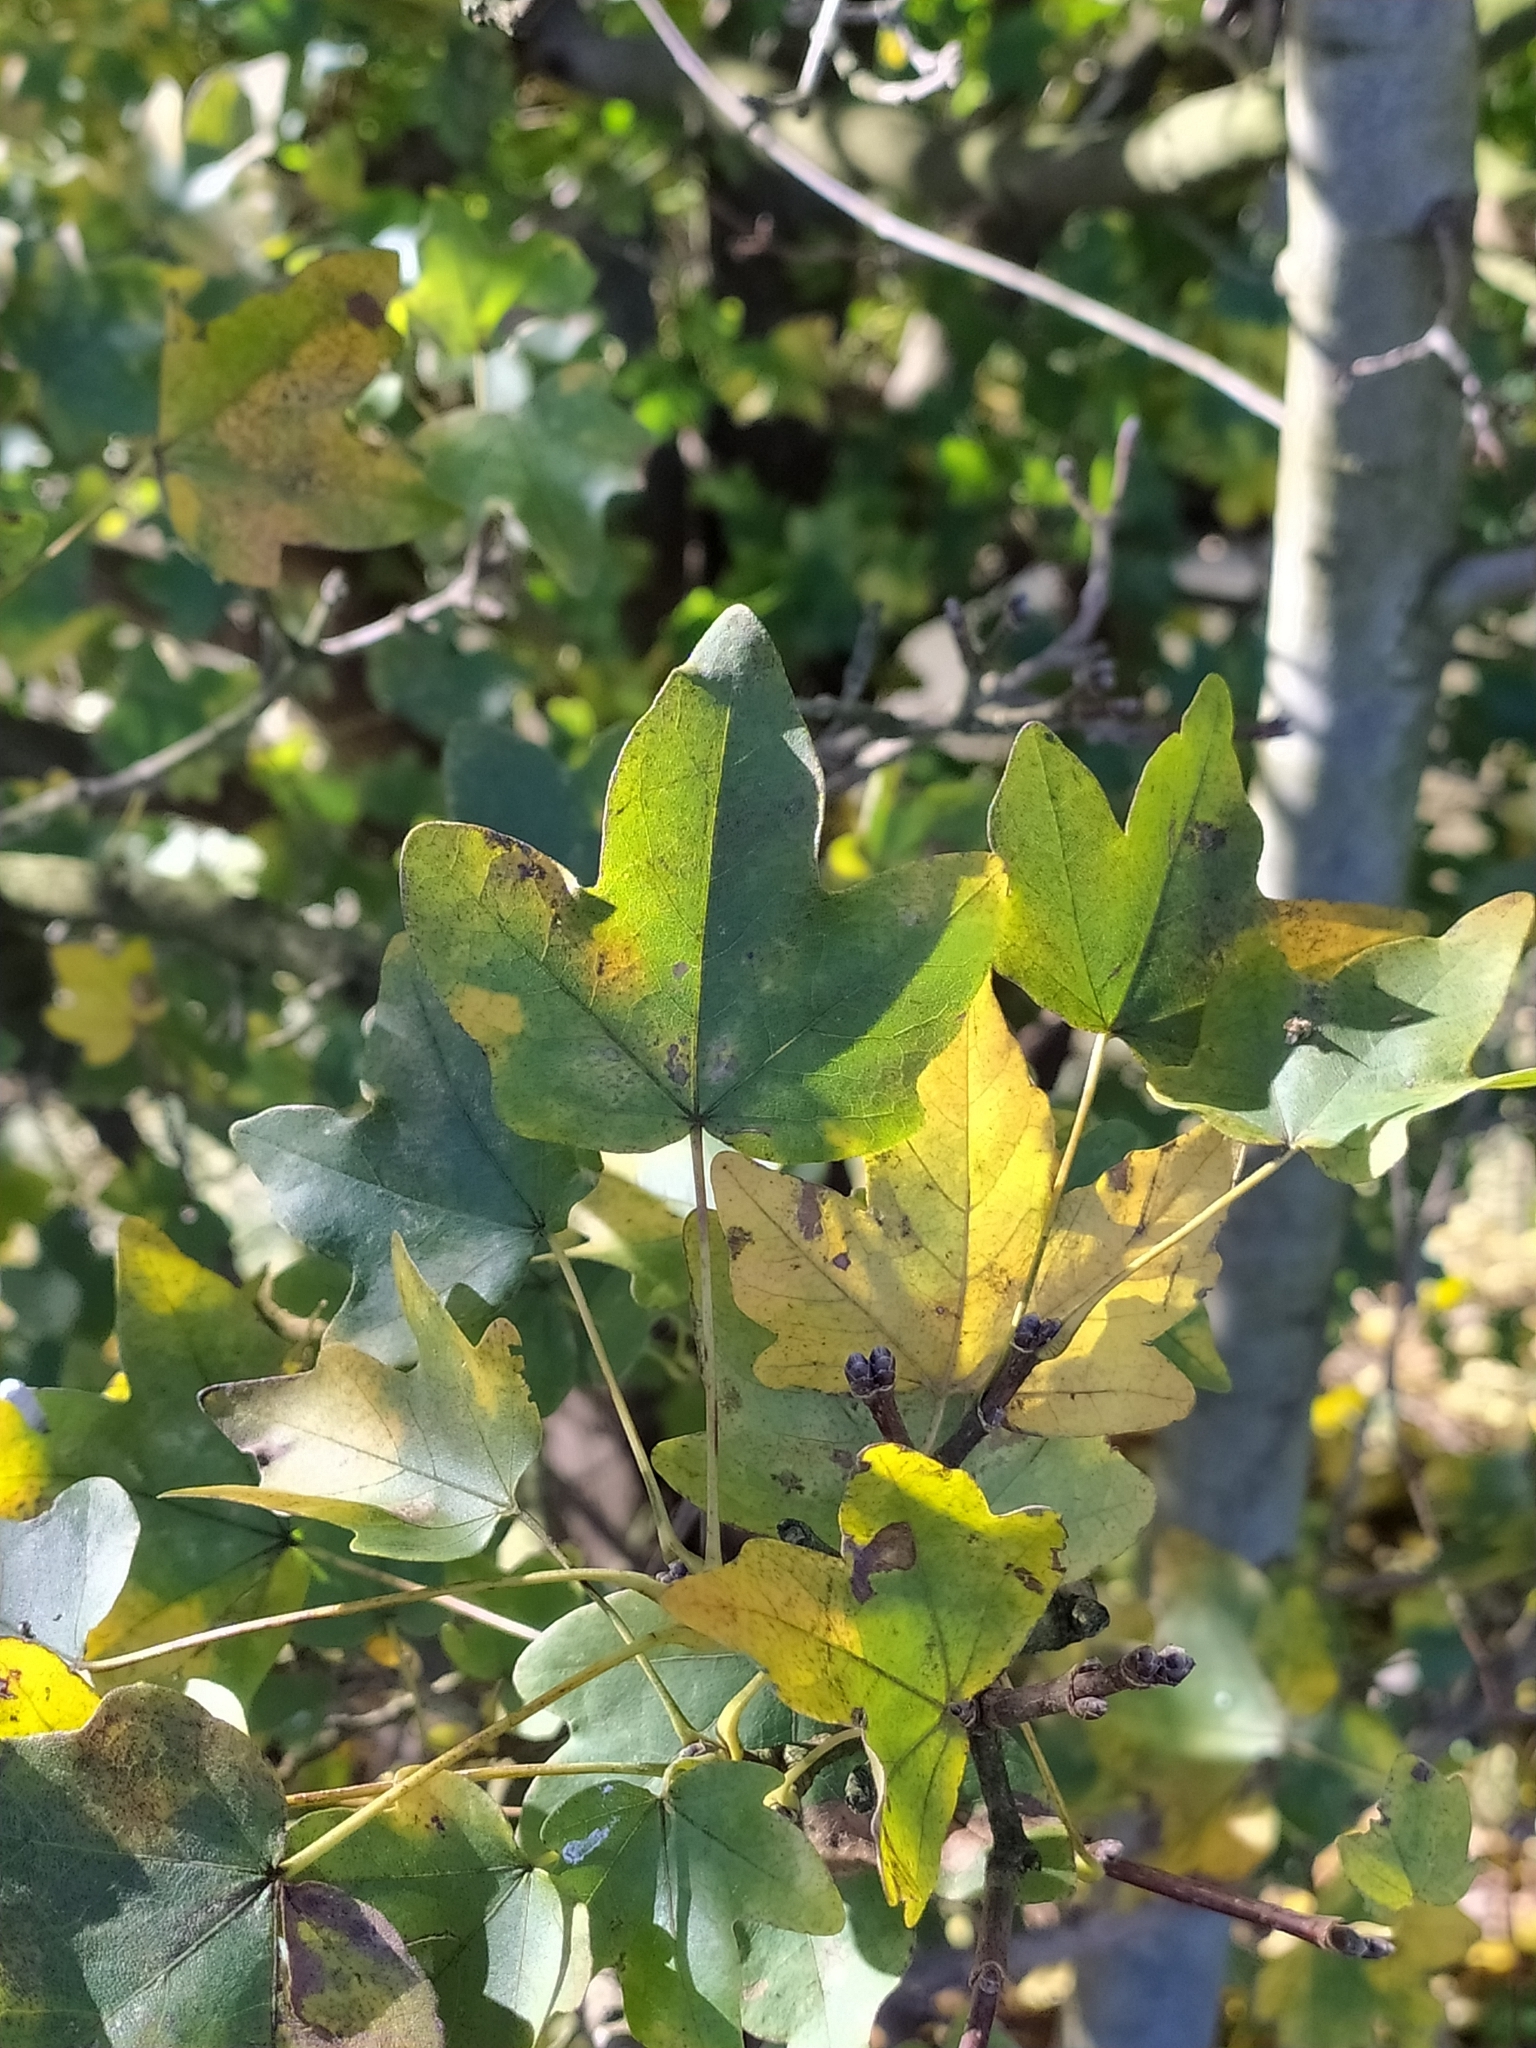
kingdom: Plantae
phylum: Tracheophyta
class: Magnoliopsida
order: Sapindales
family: Sapindaceae
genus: Acer
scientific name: Acer campestre
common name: Field maple
